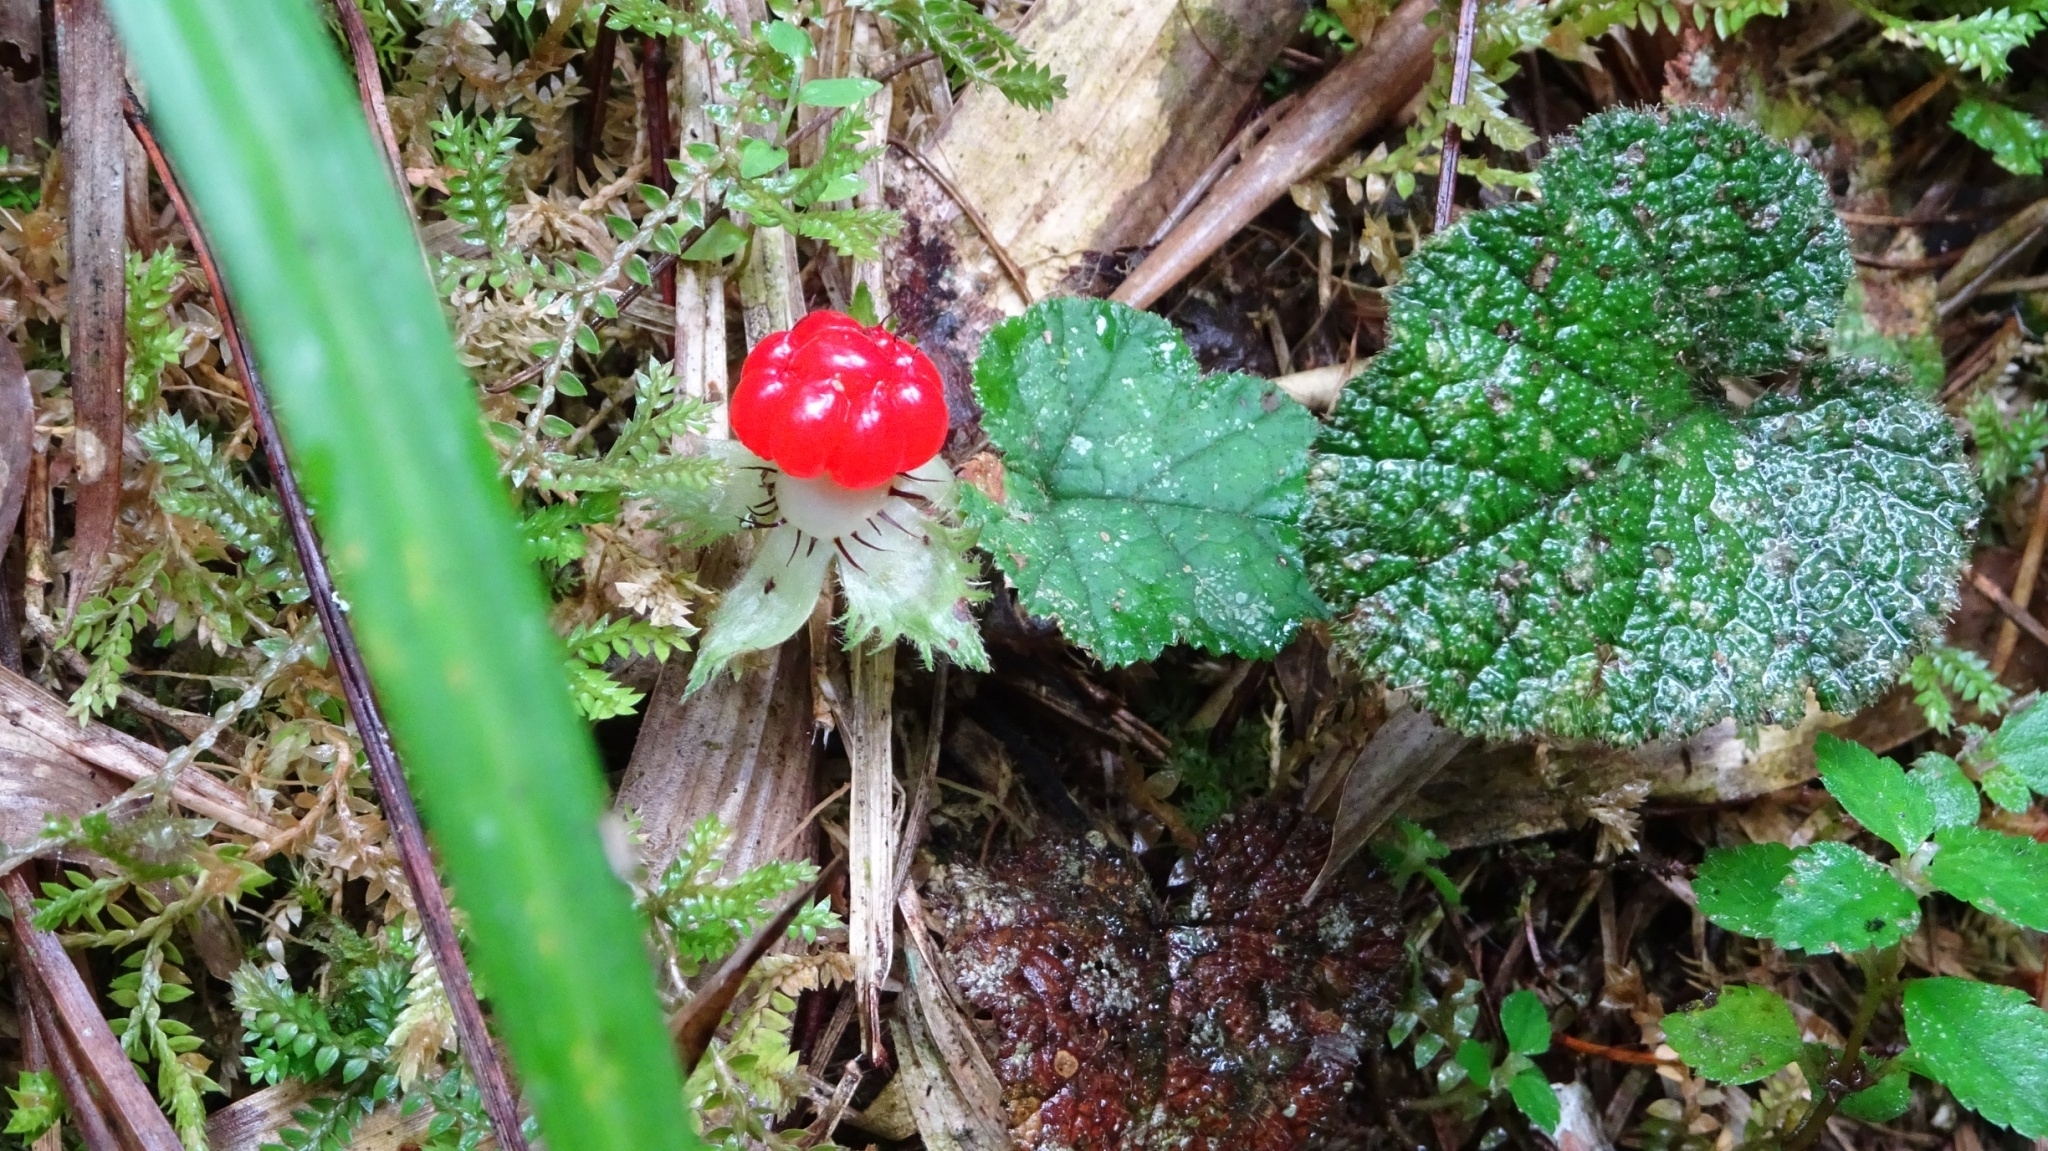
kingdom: Plantae
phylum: Tracheophyta
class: Magnoliopsida
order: Rosales
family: Rosaceae
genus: Rubus
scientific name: Rubus pectinellus
